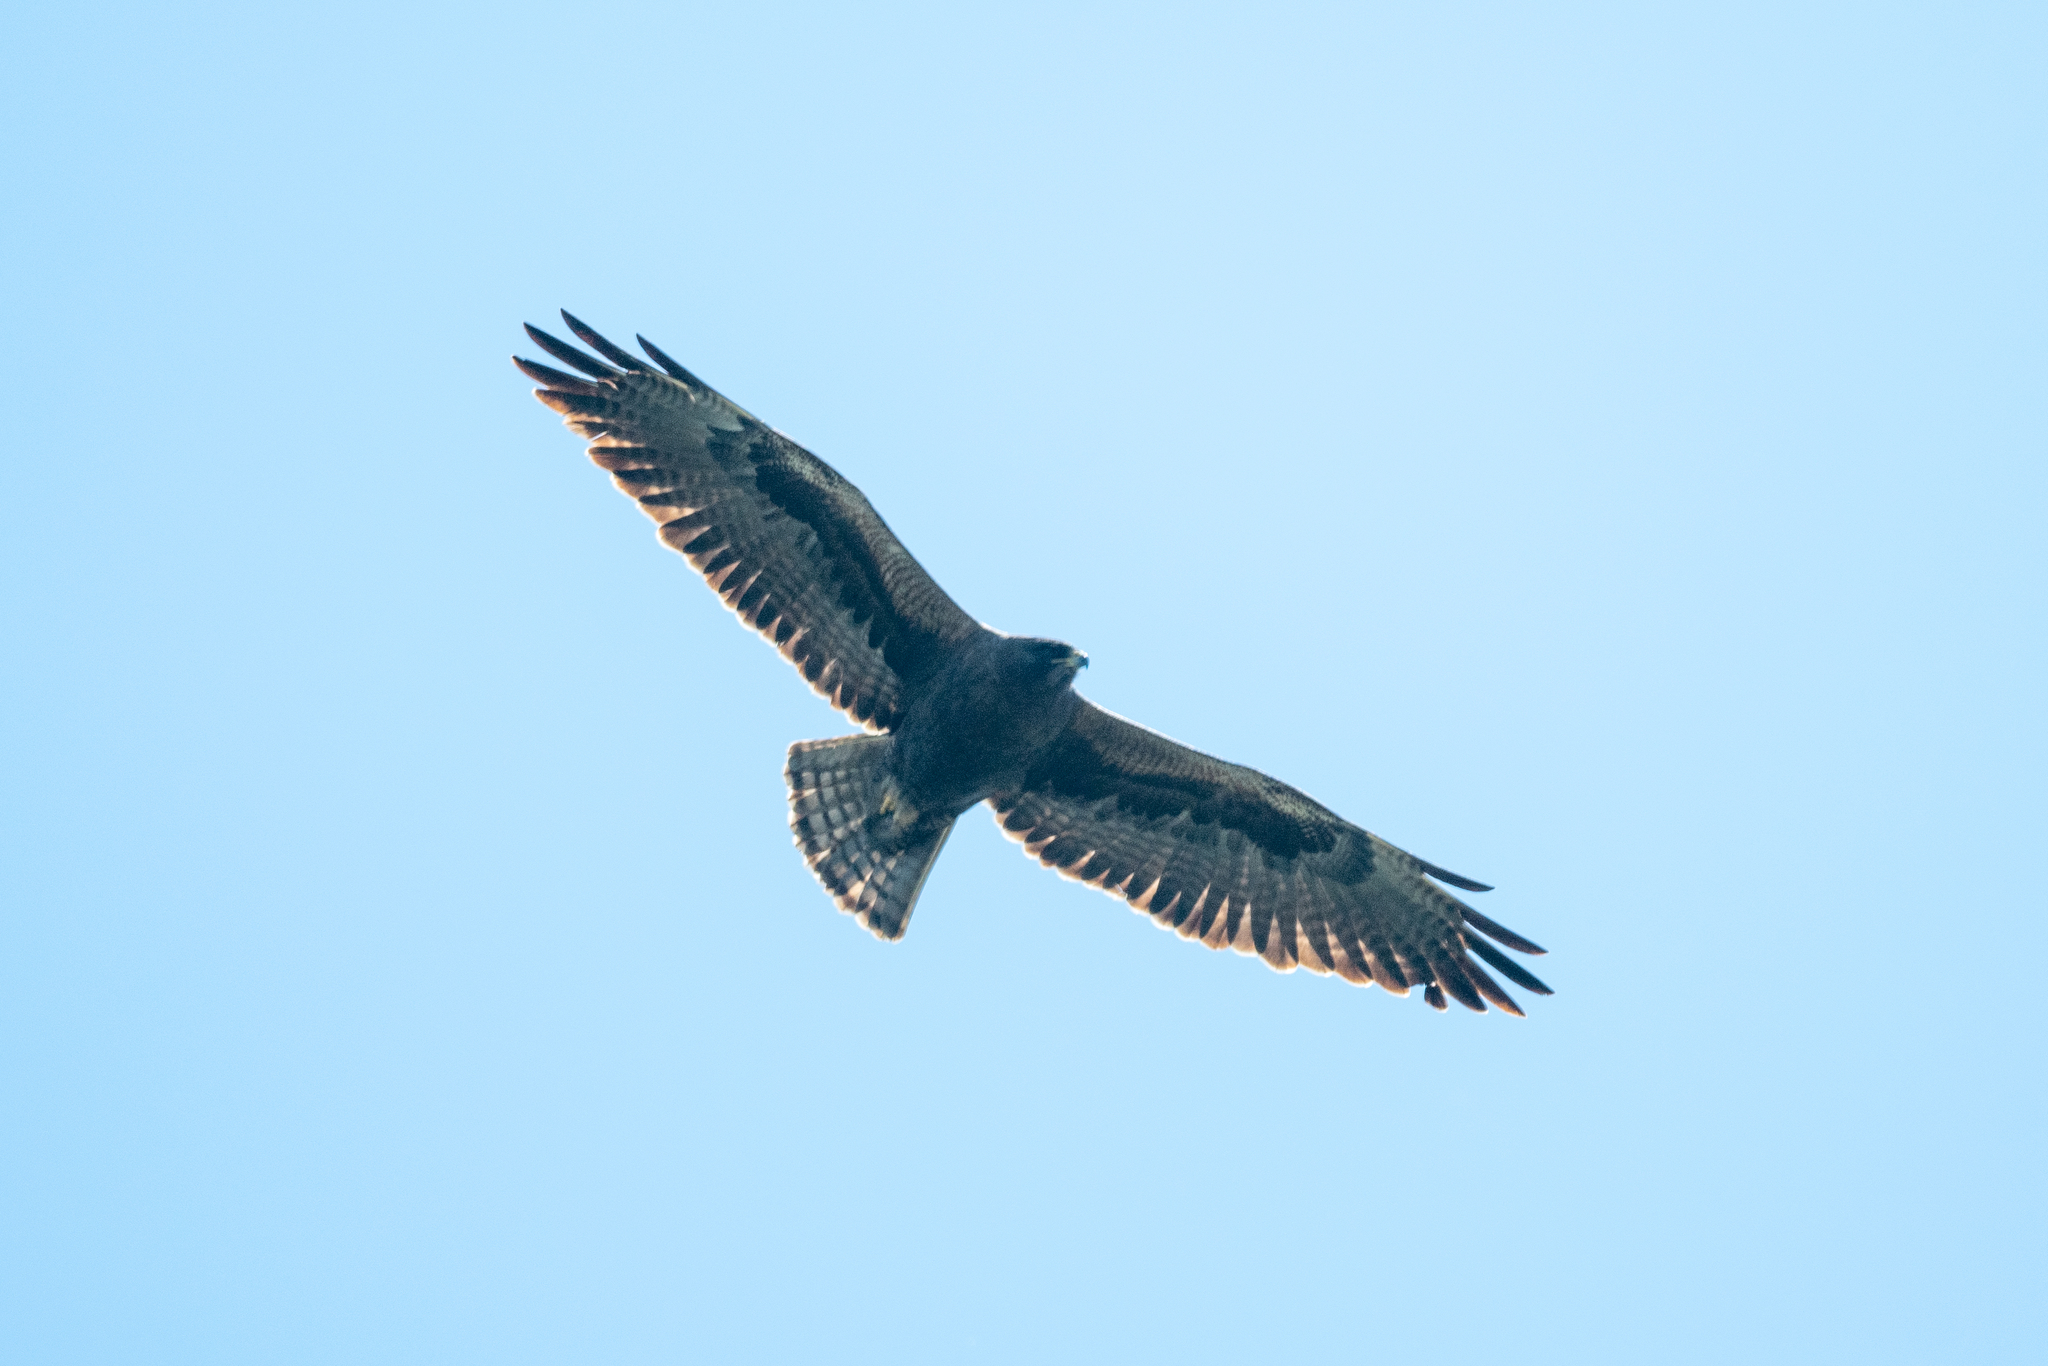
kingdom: Animalia
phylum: Chordata
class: Aves
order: Accipitriformes
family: Accipitridae
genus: Buteo
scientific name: Buteo swainsoni
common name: Swainson's hawk
